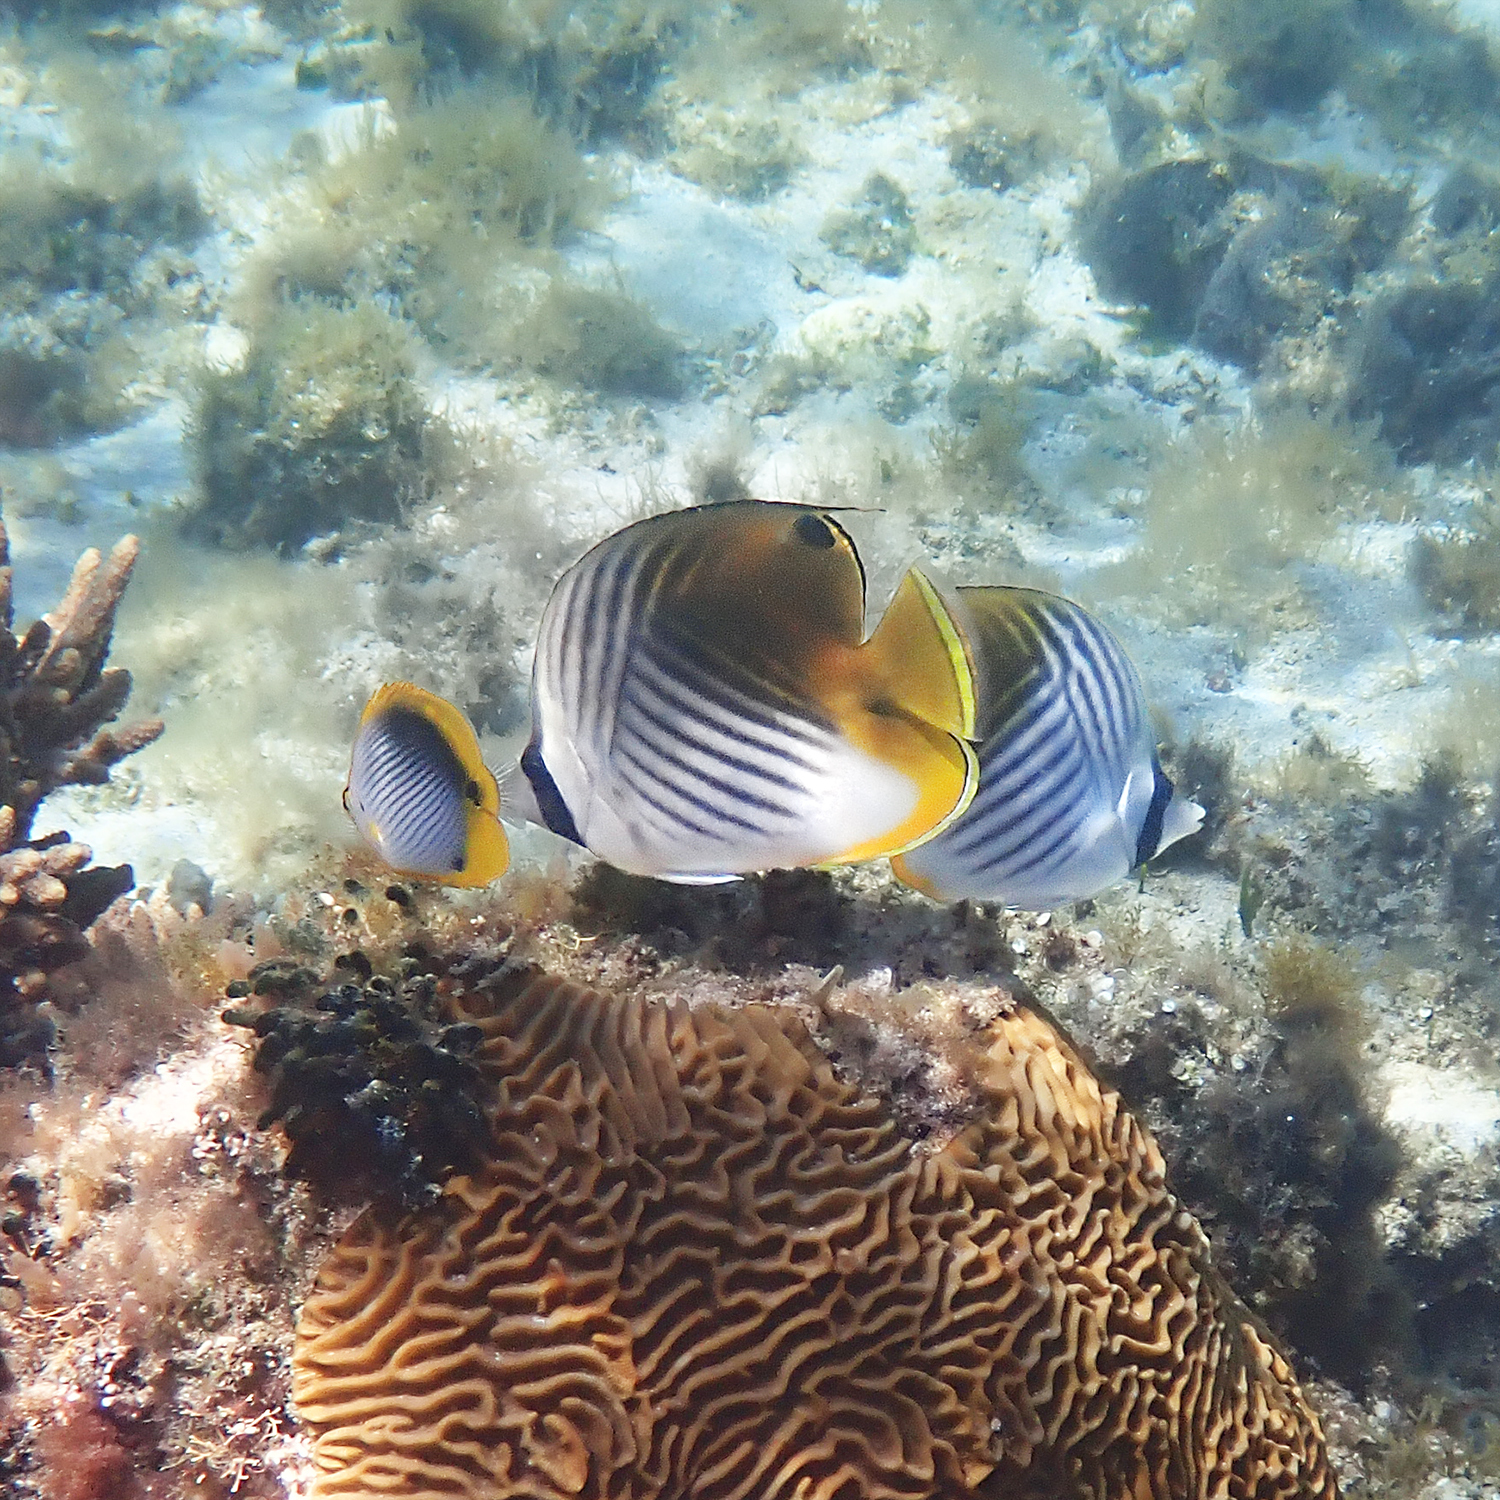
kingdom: Animalia
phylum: Chordata
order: Perciformes
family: Chaetodontidae
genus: Chaetodon
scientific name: Chaetodon auriga
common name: Threadfin butterflyfish
